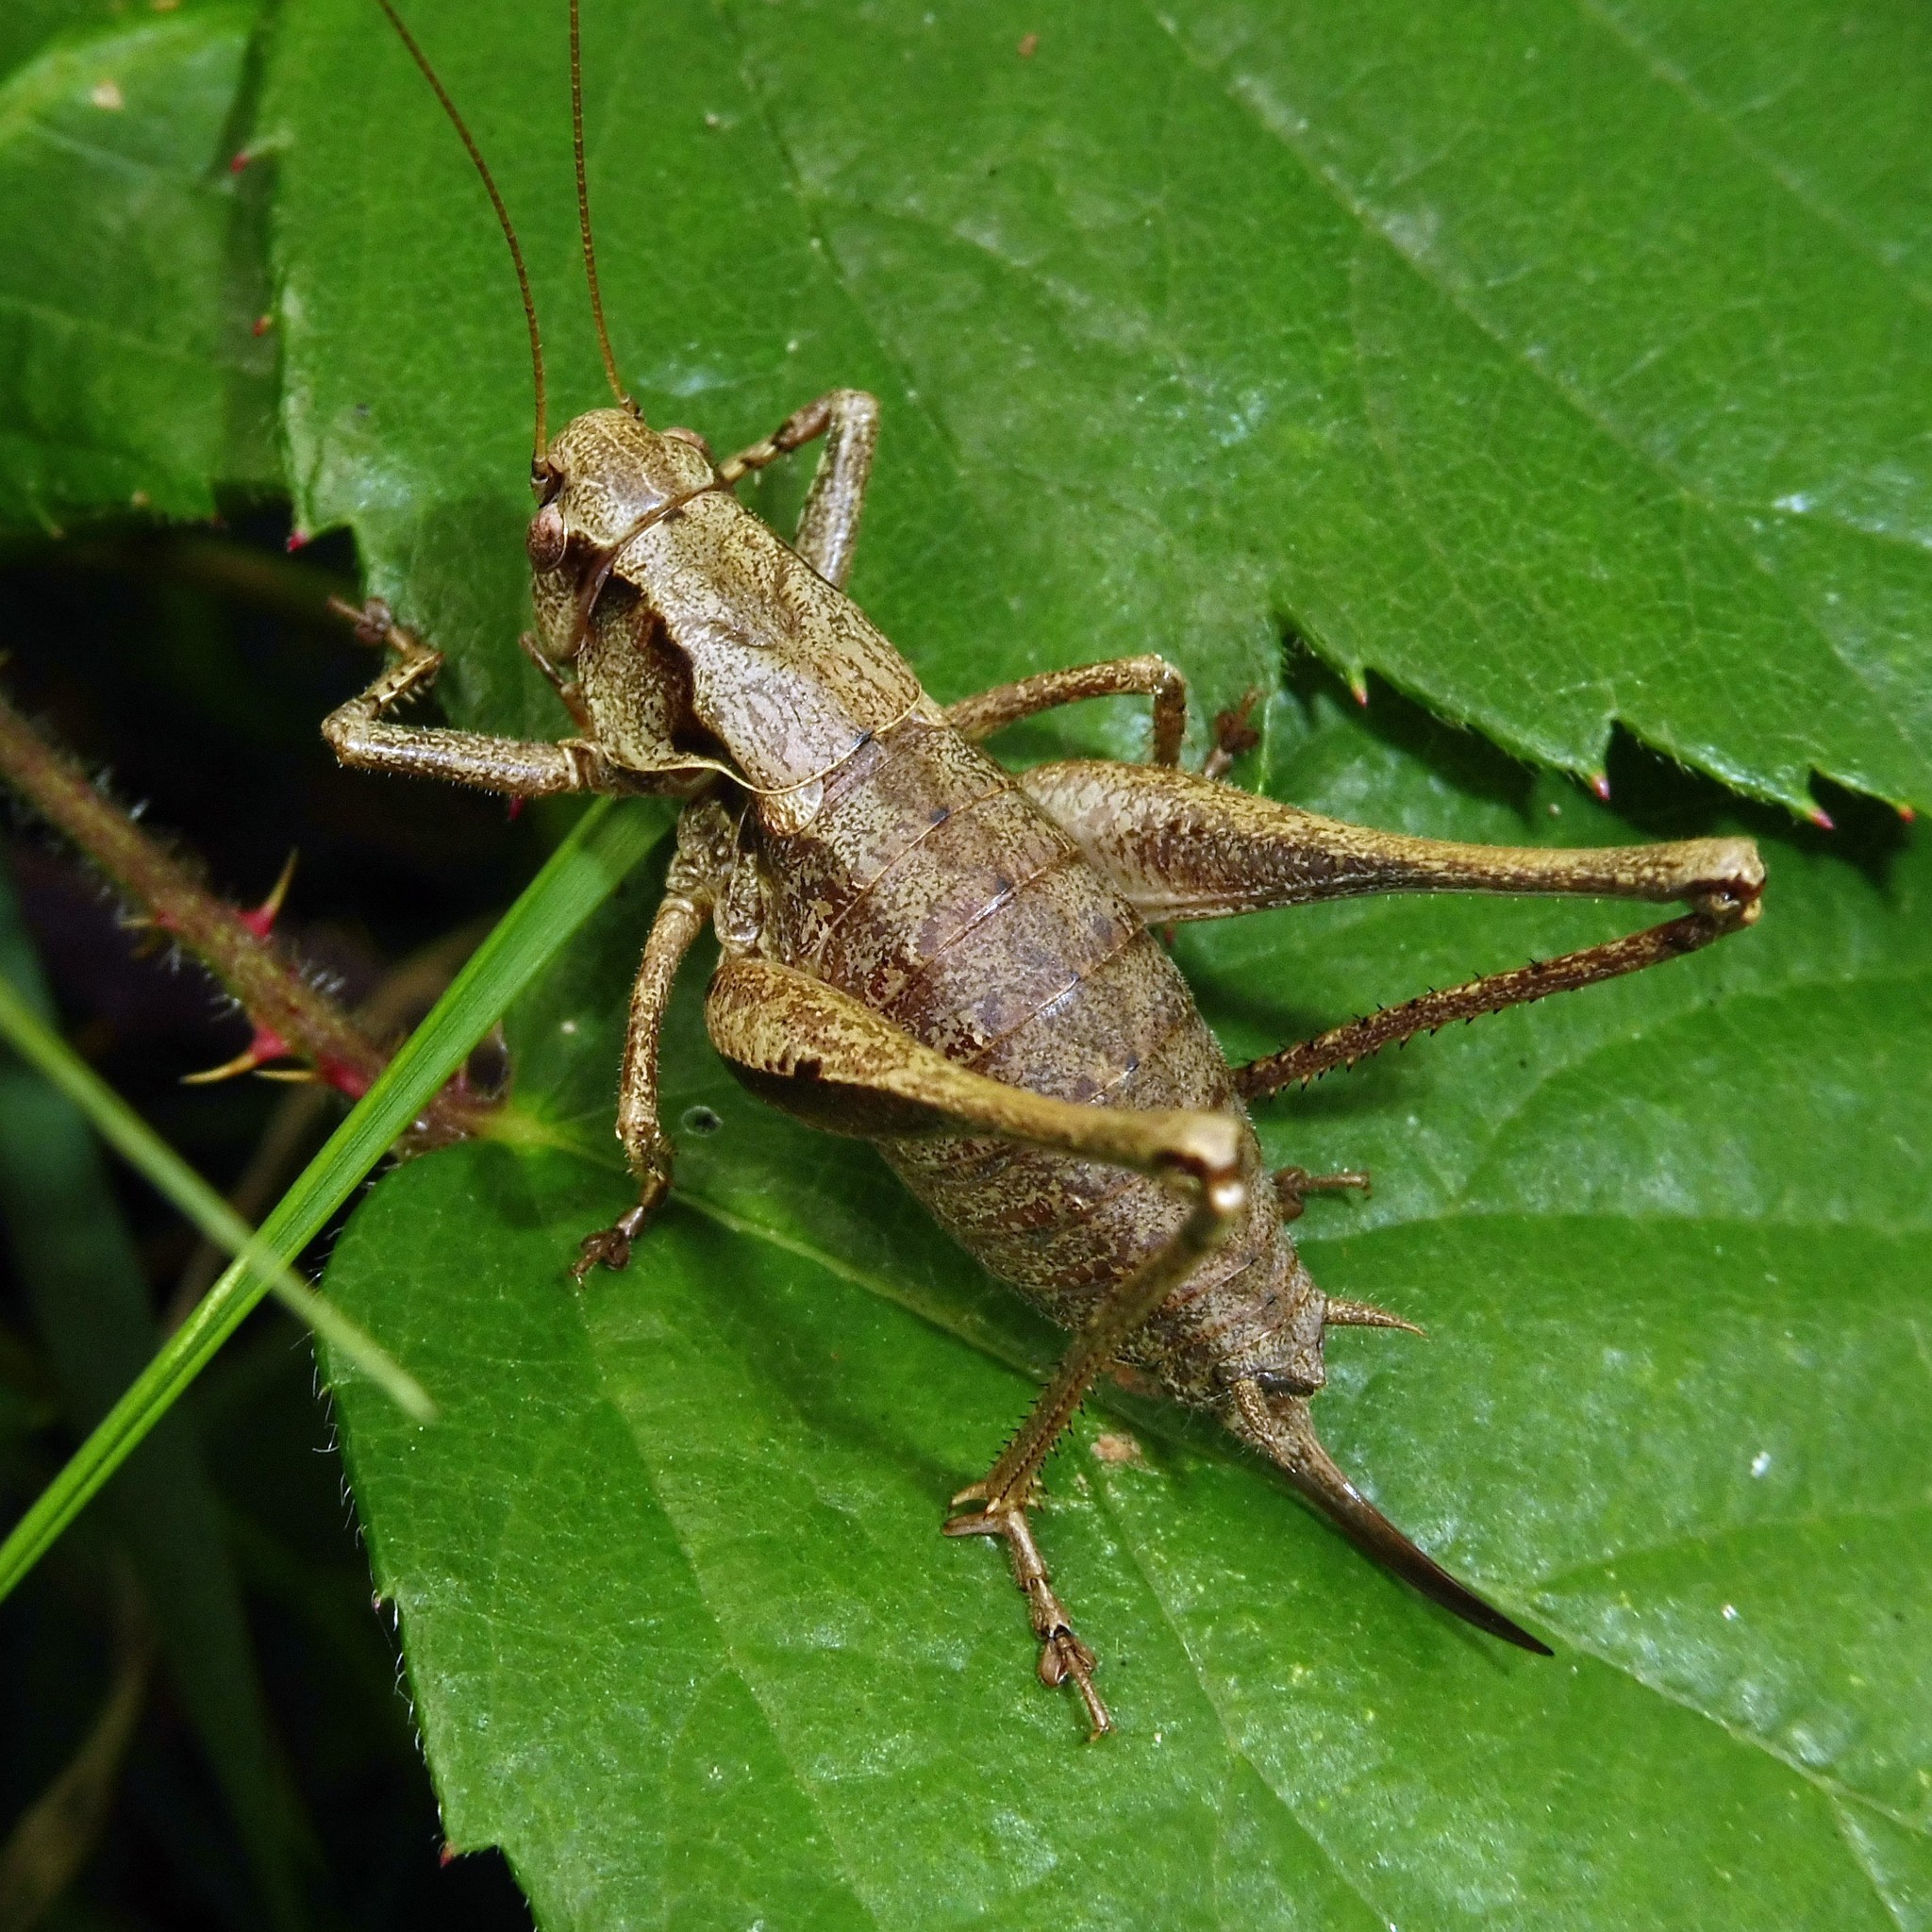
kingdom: Animalia
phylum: Arthropoda
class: Insecta
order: Orthoptera
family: Tettigoniidae
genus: Pholidoptera
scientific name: Pholidoptera griseoaptera
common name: Dark bush-cricket
